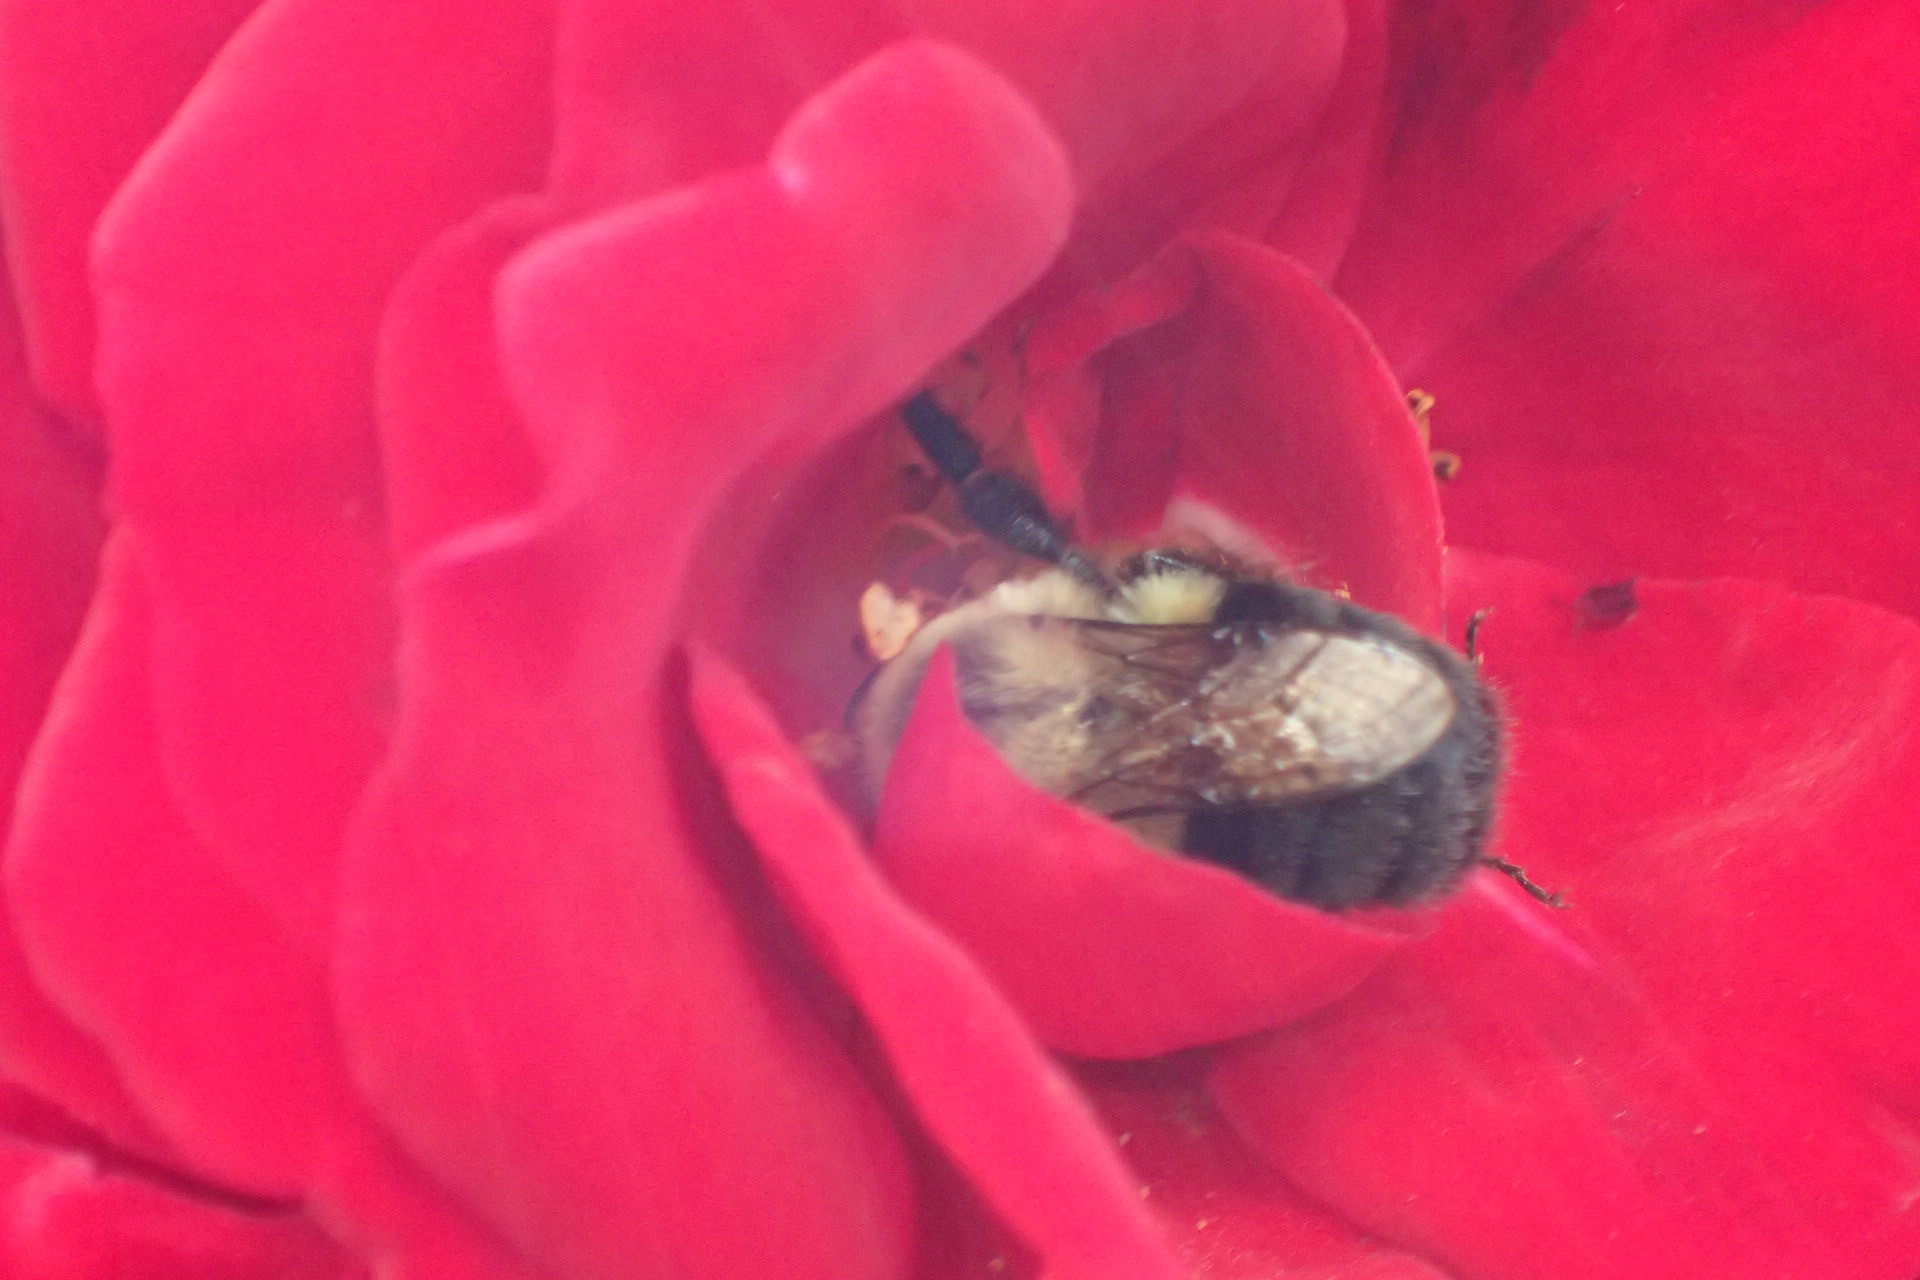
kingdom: Animalia
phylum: Arthropoda
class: Insecta
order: Hymenoptera
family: Apidae
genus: Bombus
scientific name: Bombus impatiens
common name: Common eastern bumble bee
